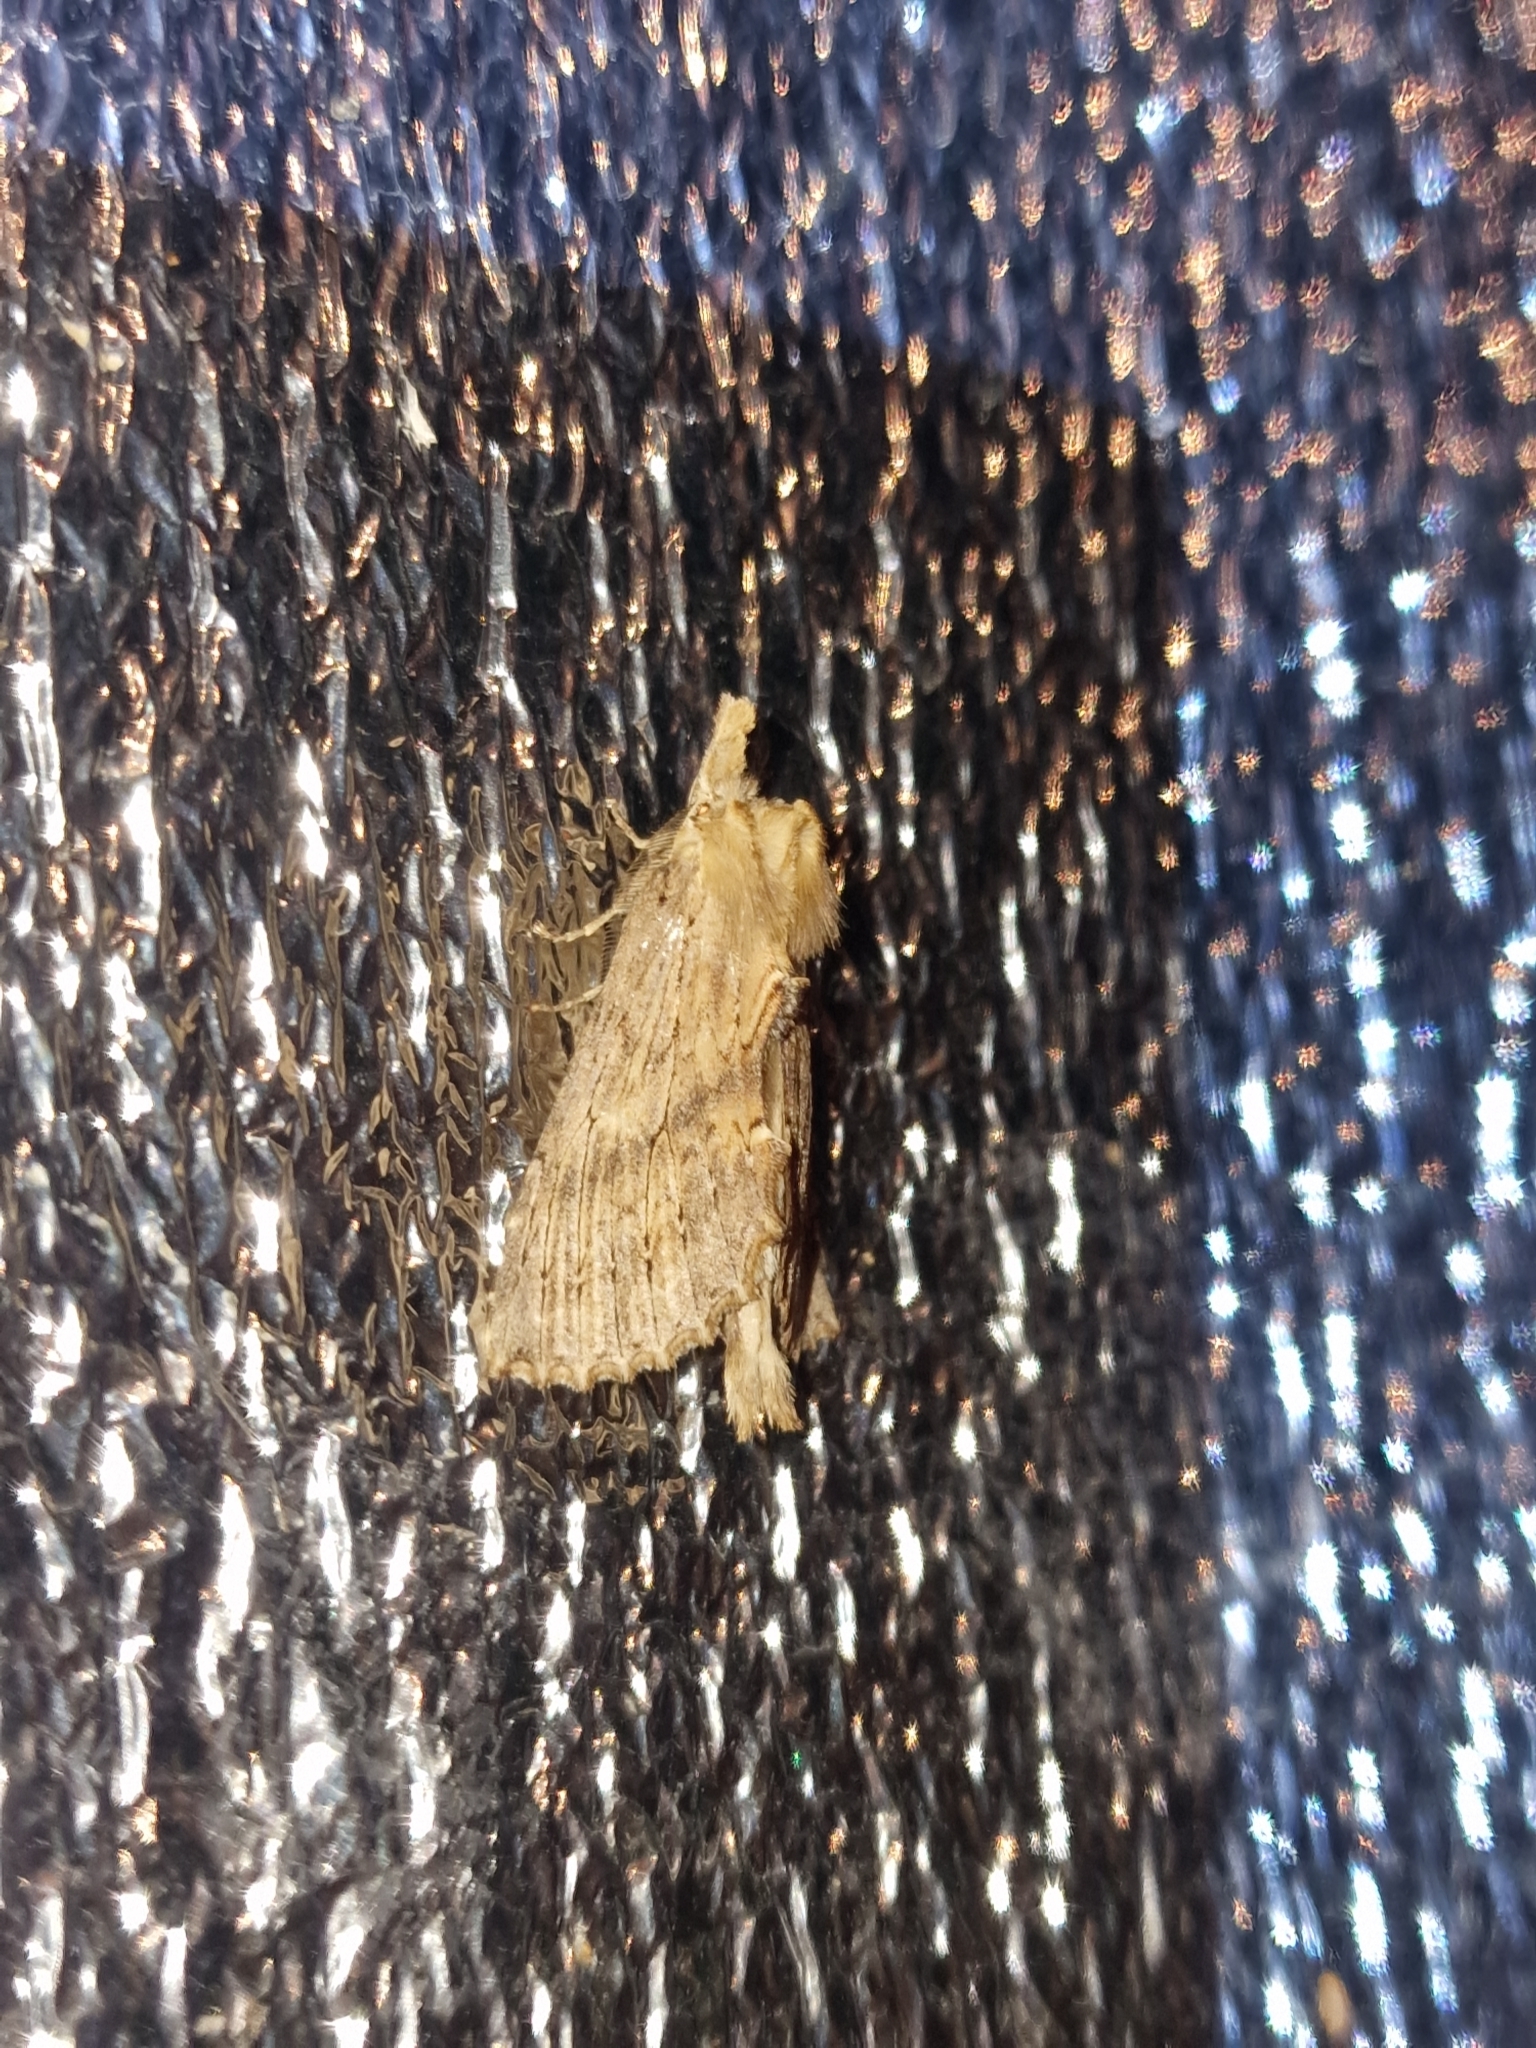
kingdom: Animalia
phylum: Arthropoda
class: Insecta
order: Lepidoptera
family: Notodontidae
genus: Pterostoma
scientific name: Pterostoma palpina
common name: Pale prominent
